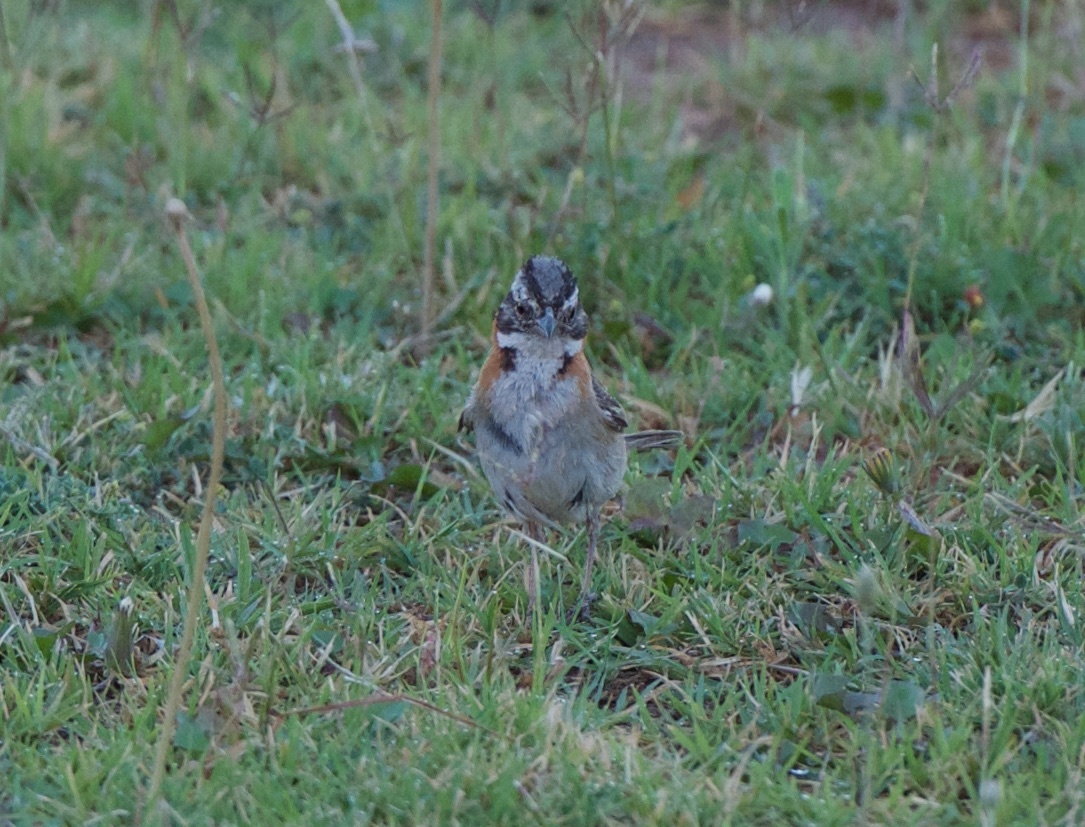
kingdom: Animalia
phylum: Chordata
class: Aves
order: Passeriformes
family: Passerellidae
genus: Zonotrichia
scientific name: Zonotrichia capensis
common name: Rufous-collared sparrow
